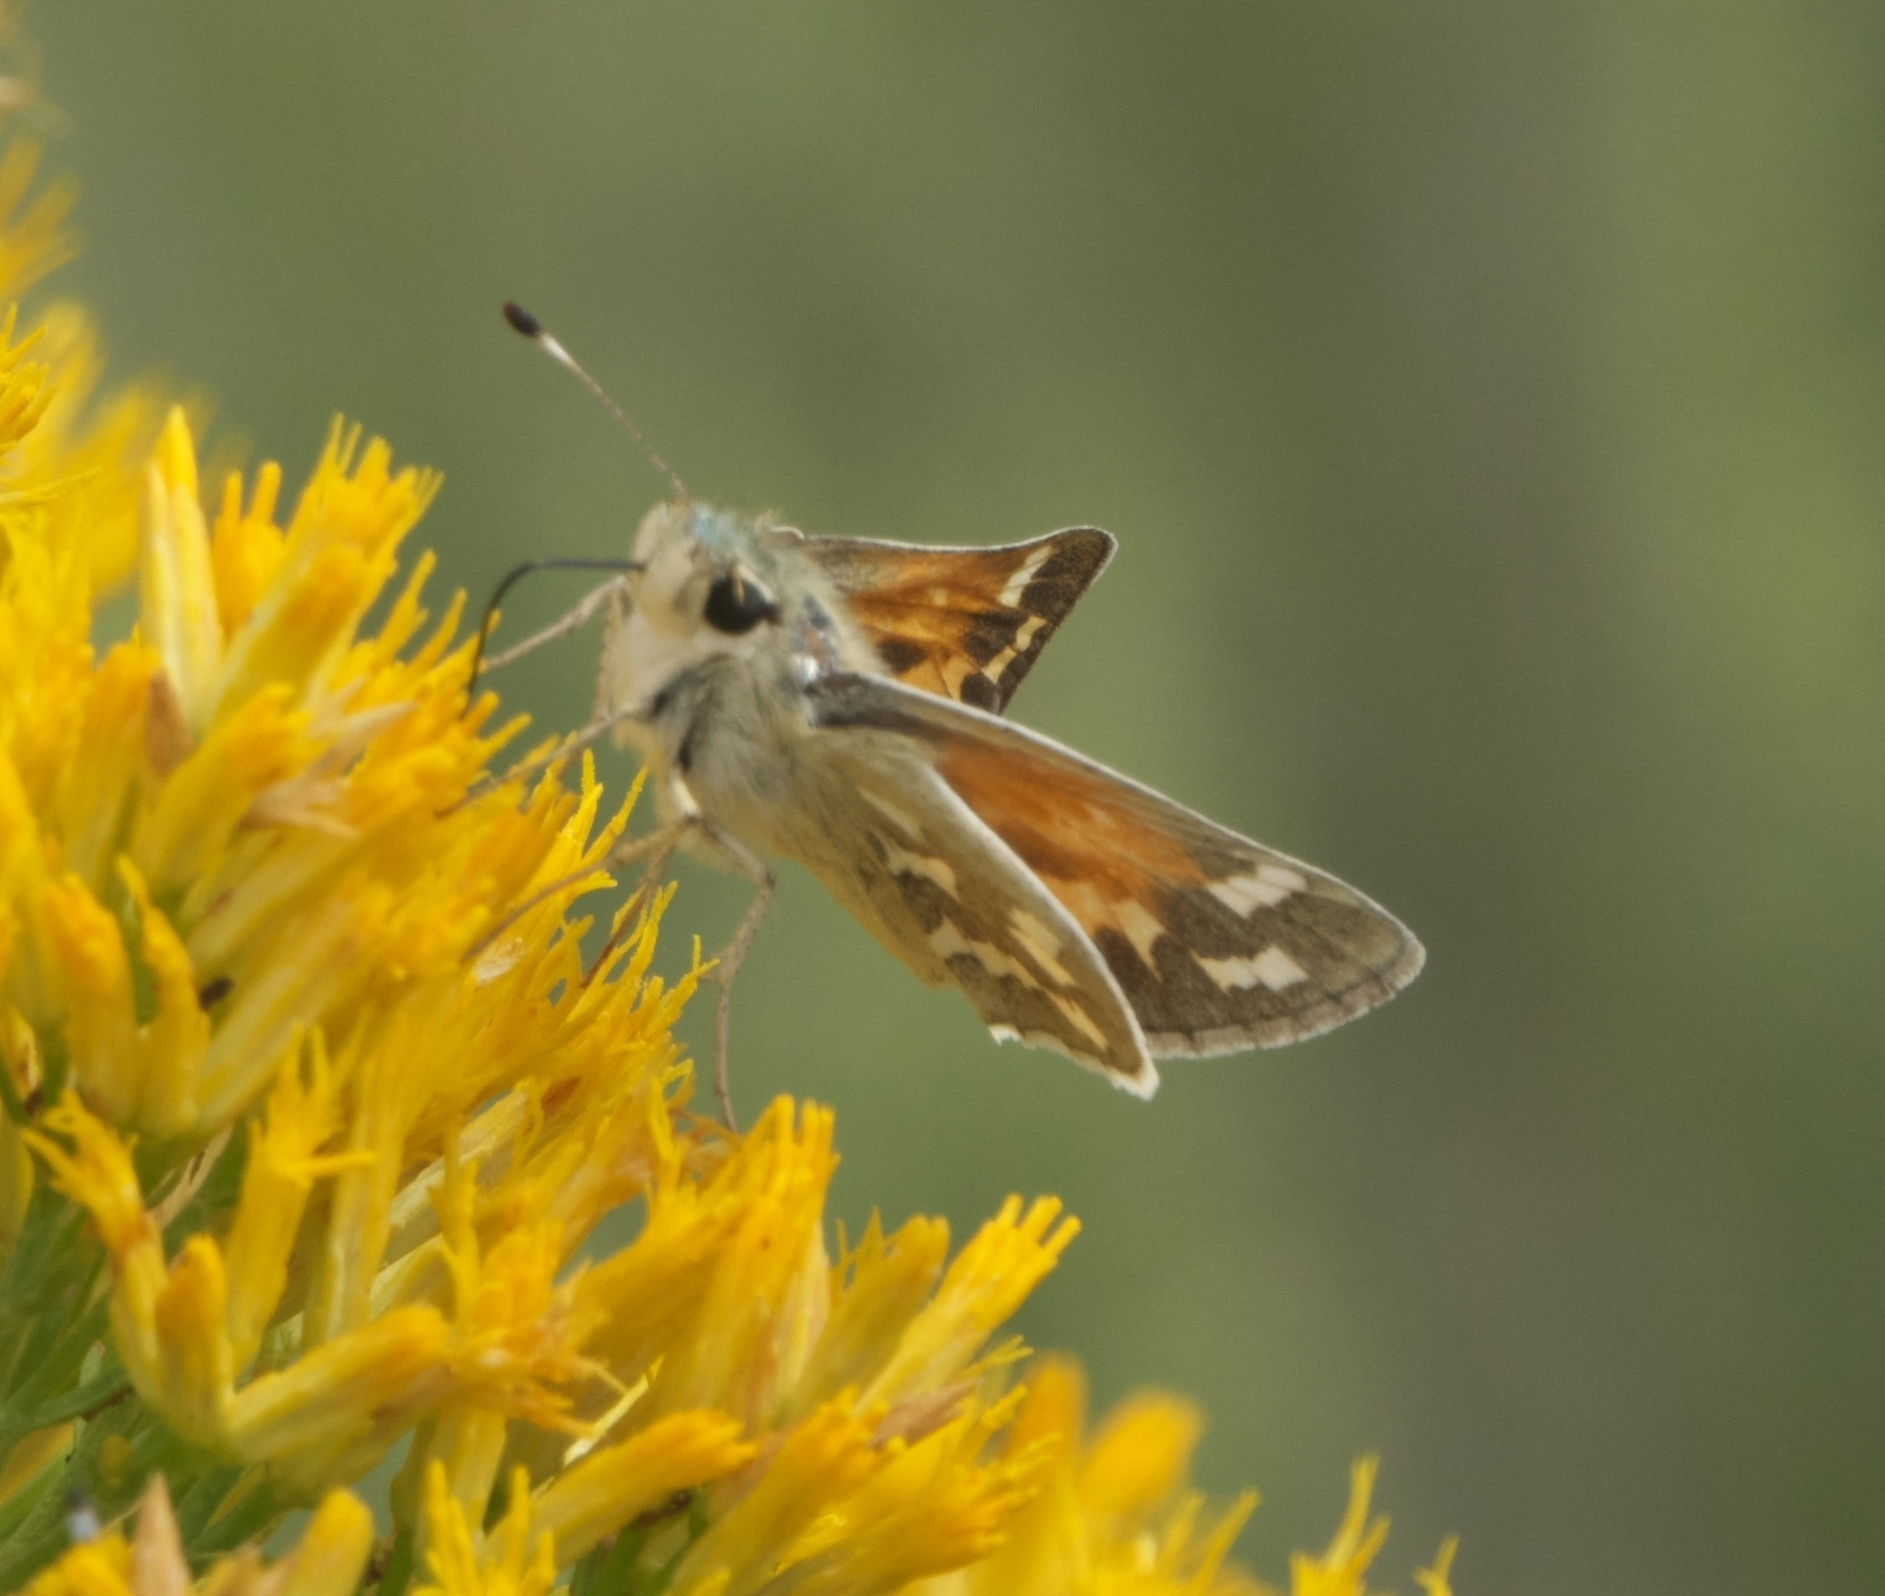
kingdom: Animalia
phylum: Arthropoda
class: Insecta
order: Lepidoptera
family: Hesperiidae
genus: Hesperia
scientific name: Hesperia juba
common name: Juba skipper
